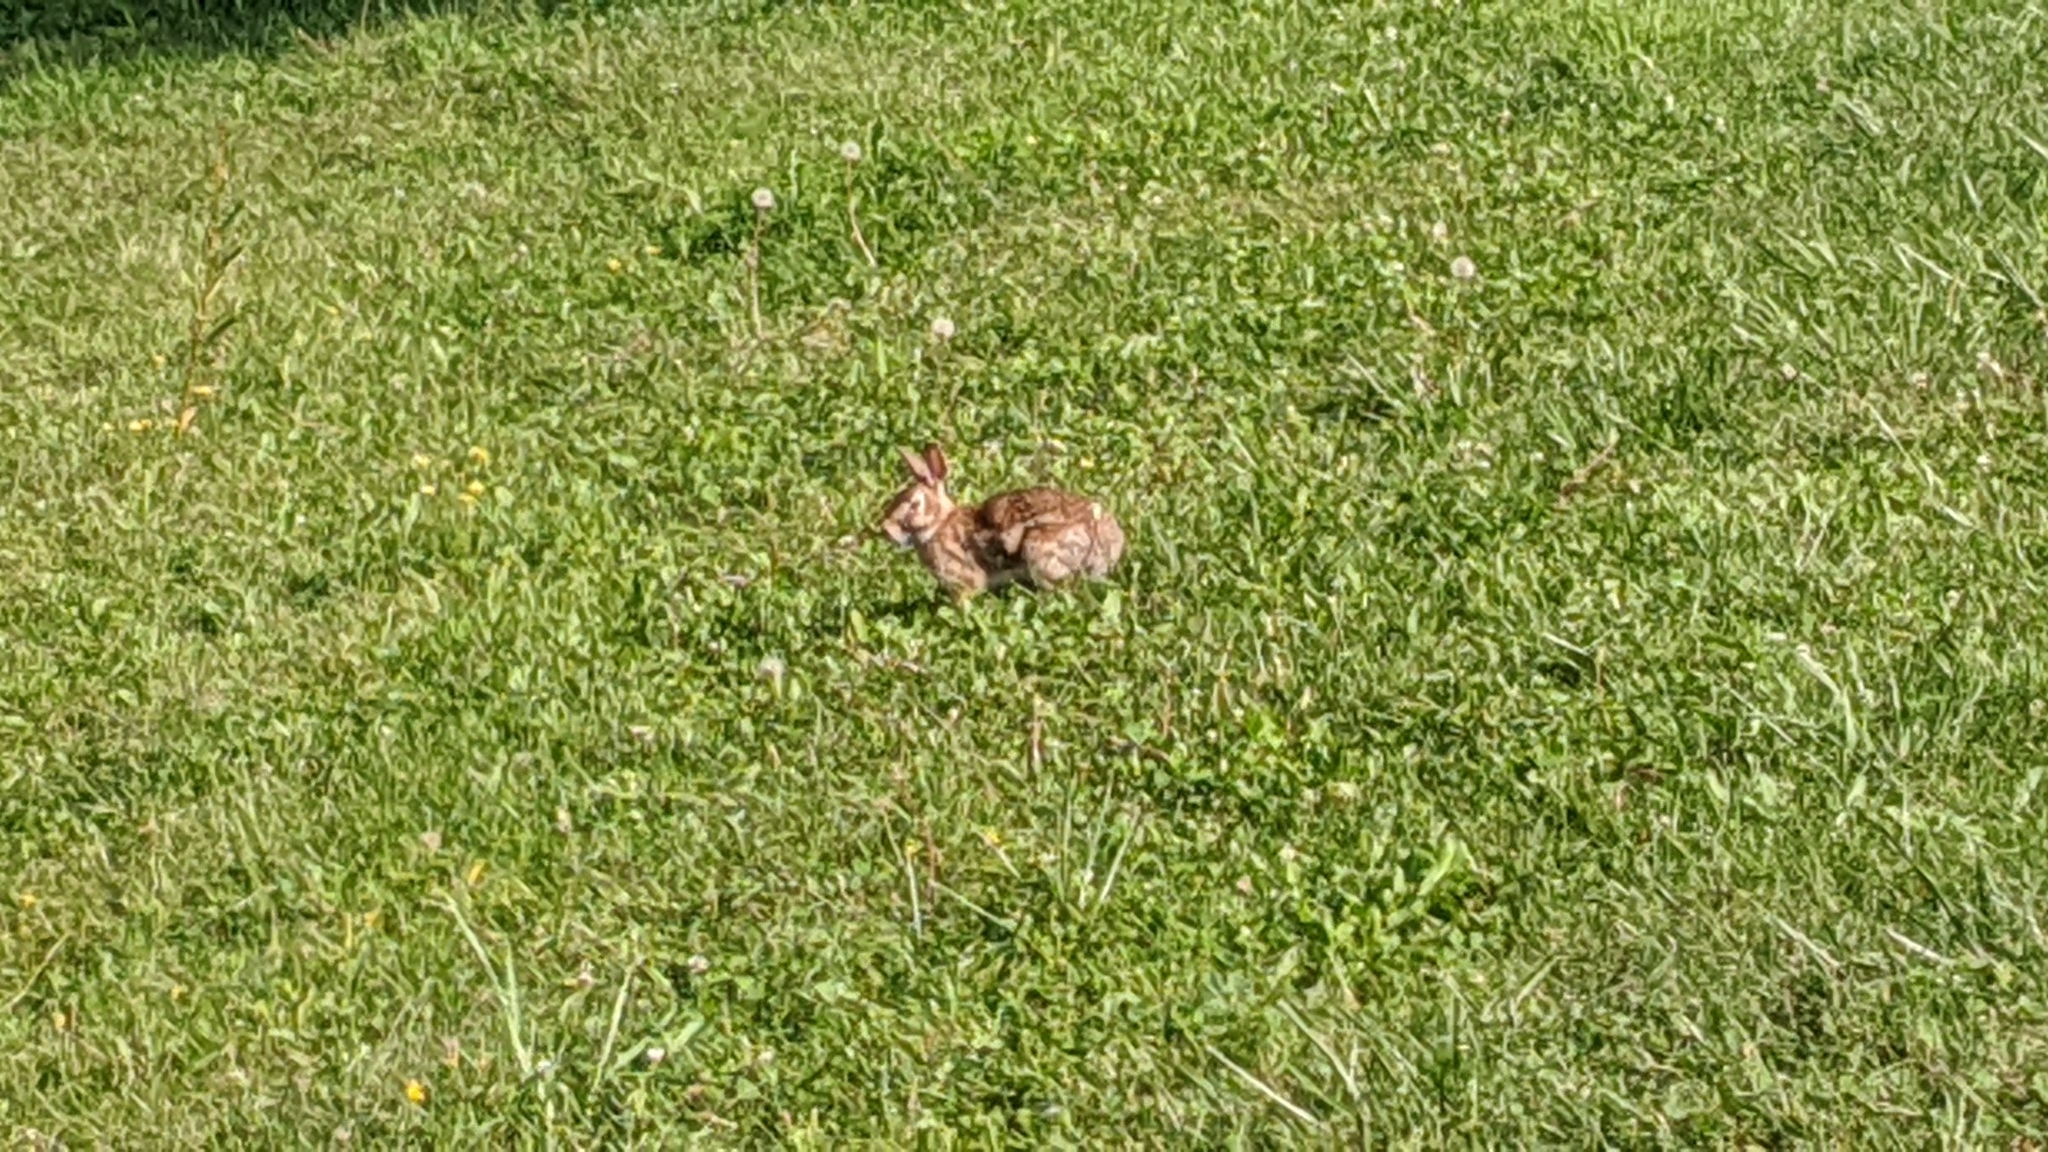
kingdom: Animalia
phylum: Chordata
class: Mammalia
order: Lagomorpha
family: Leporidae
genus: Sylvilagus
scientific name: Sylvilagus floridanus
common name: Eastern cottontail
